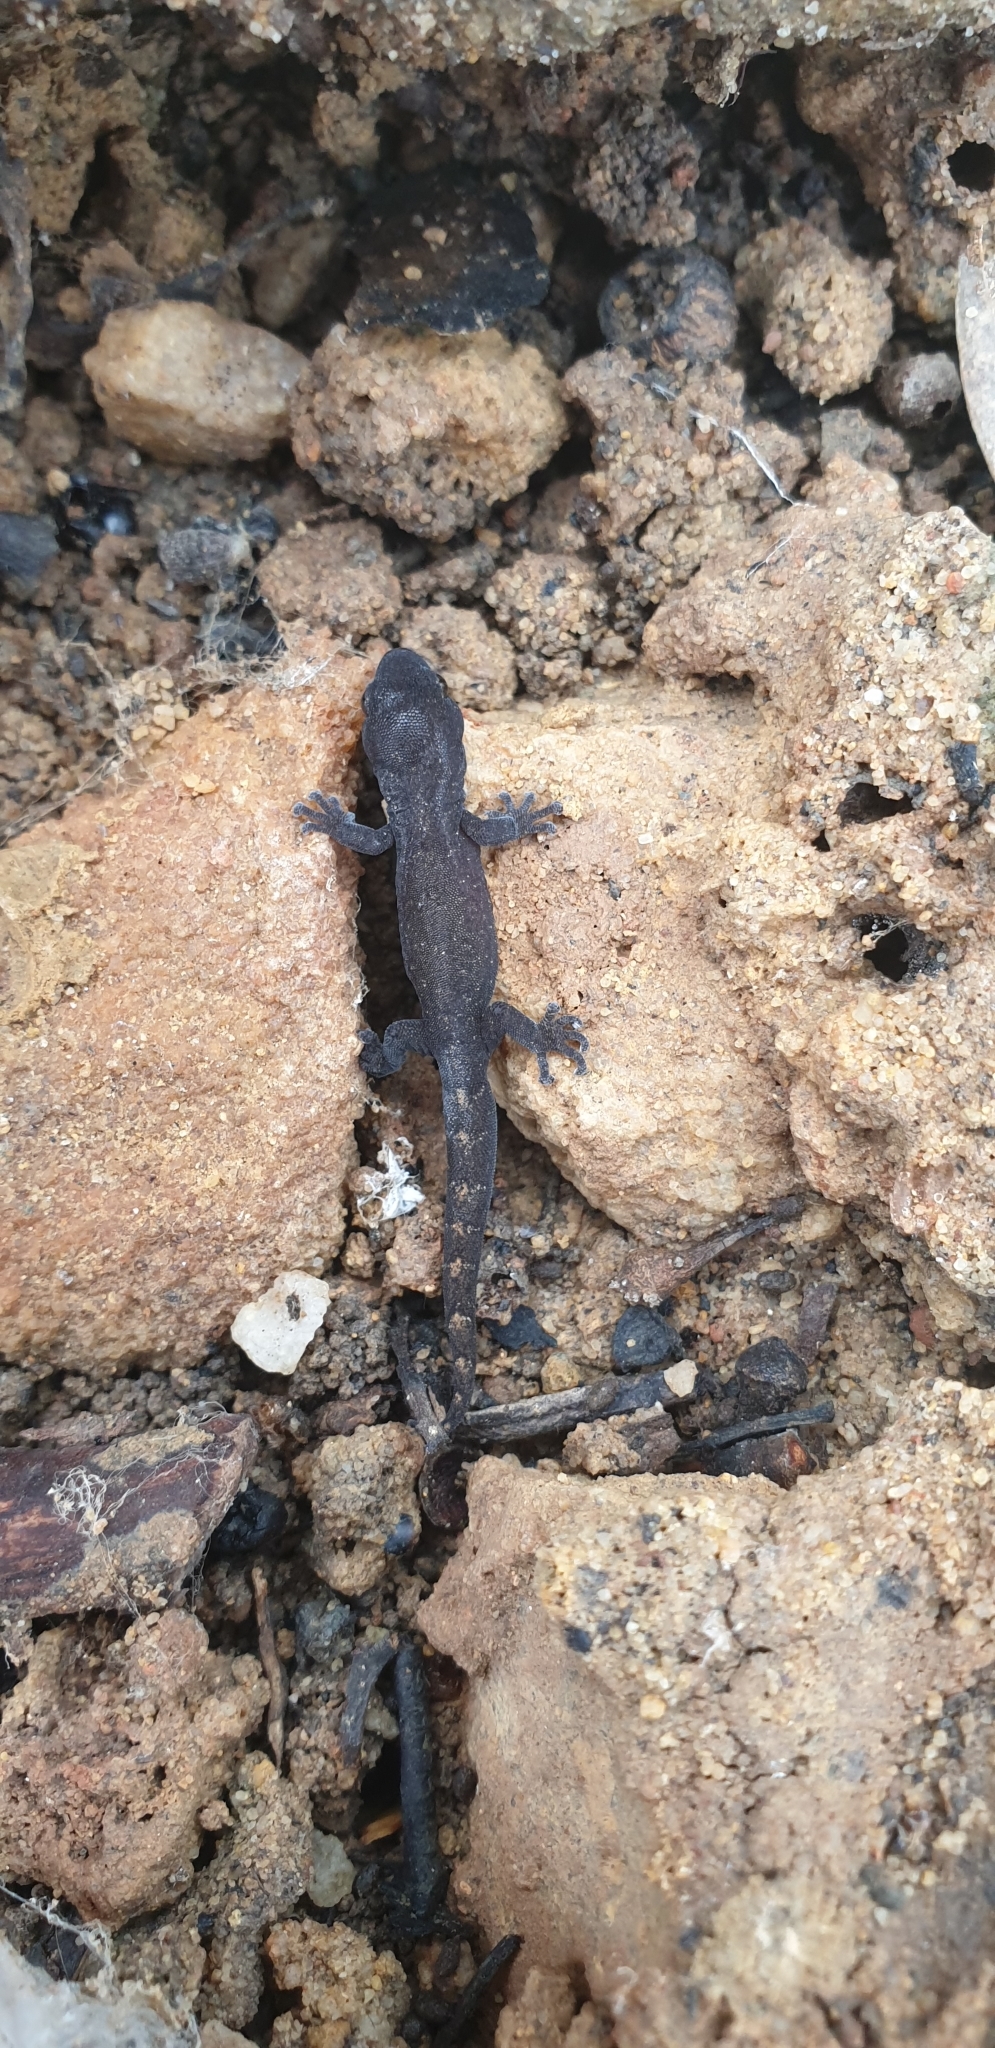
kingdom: Animalia
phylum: Chordata
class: Squamata
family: Gekkonidae
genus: Christinus
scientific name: Christinus marmoratus
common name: Marbled gecko
